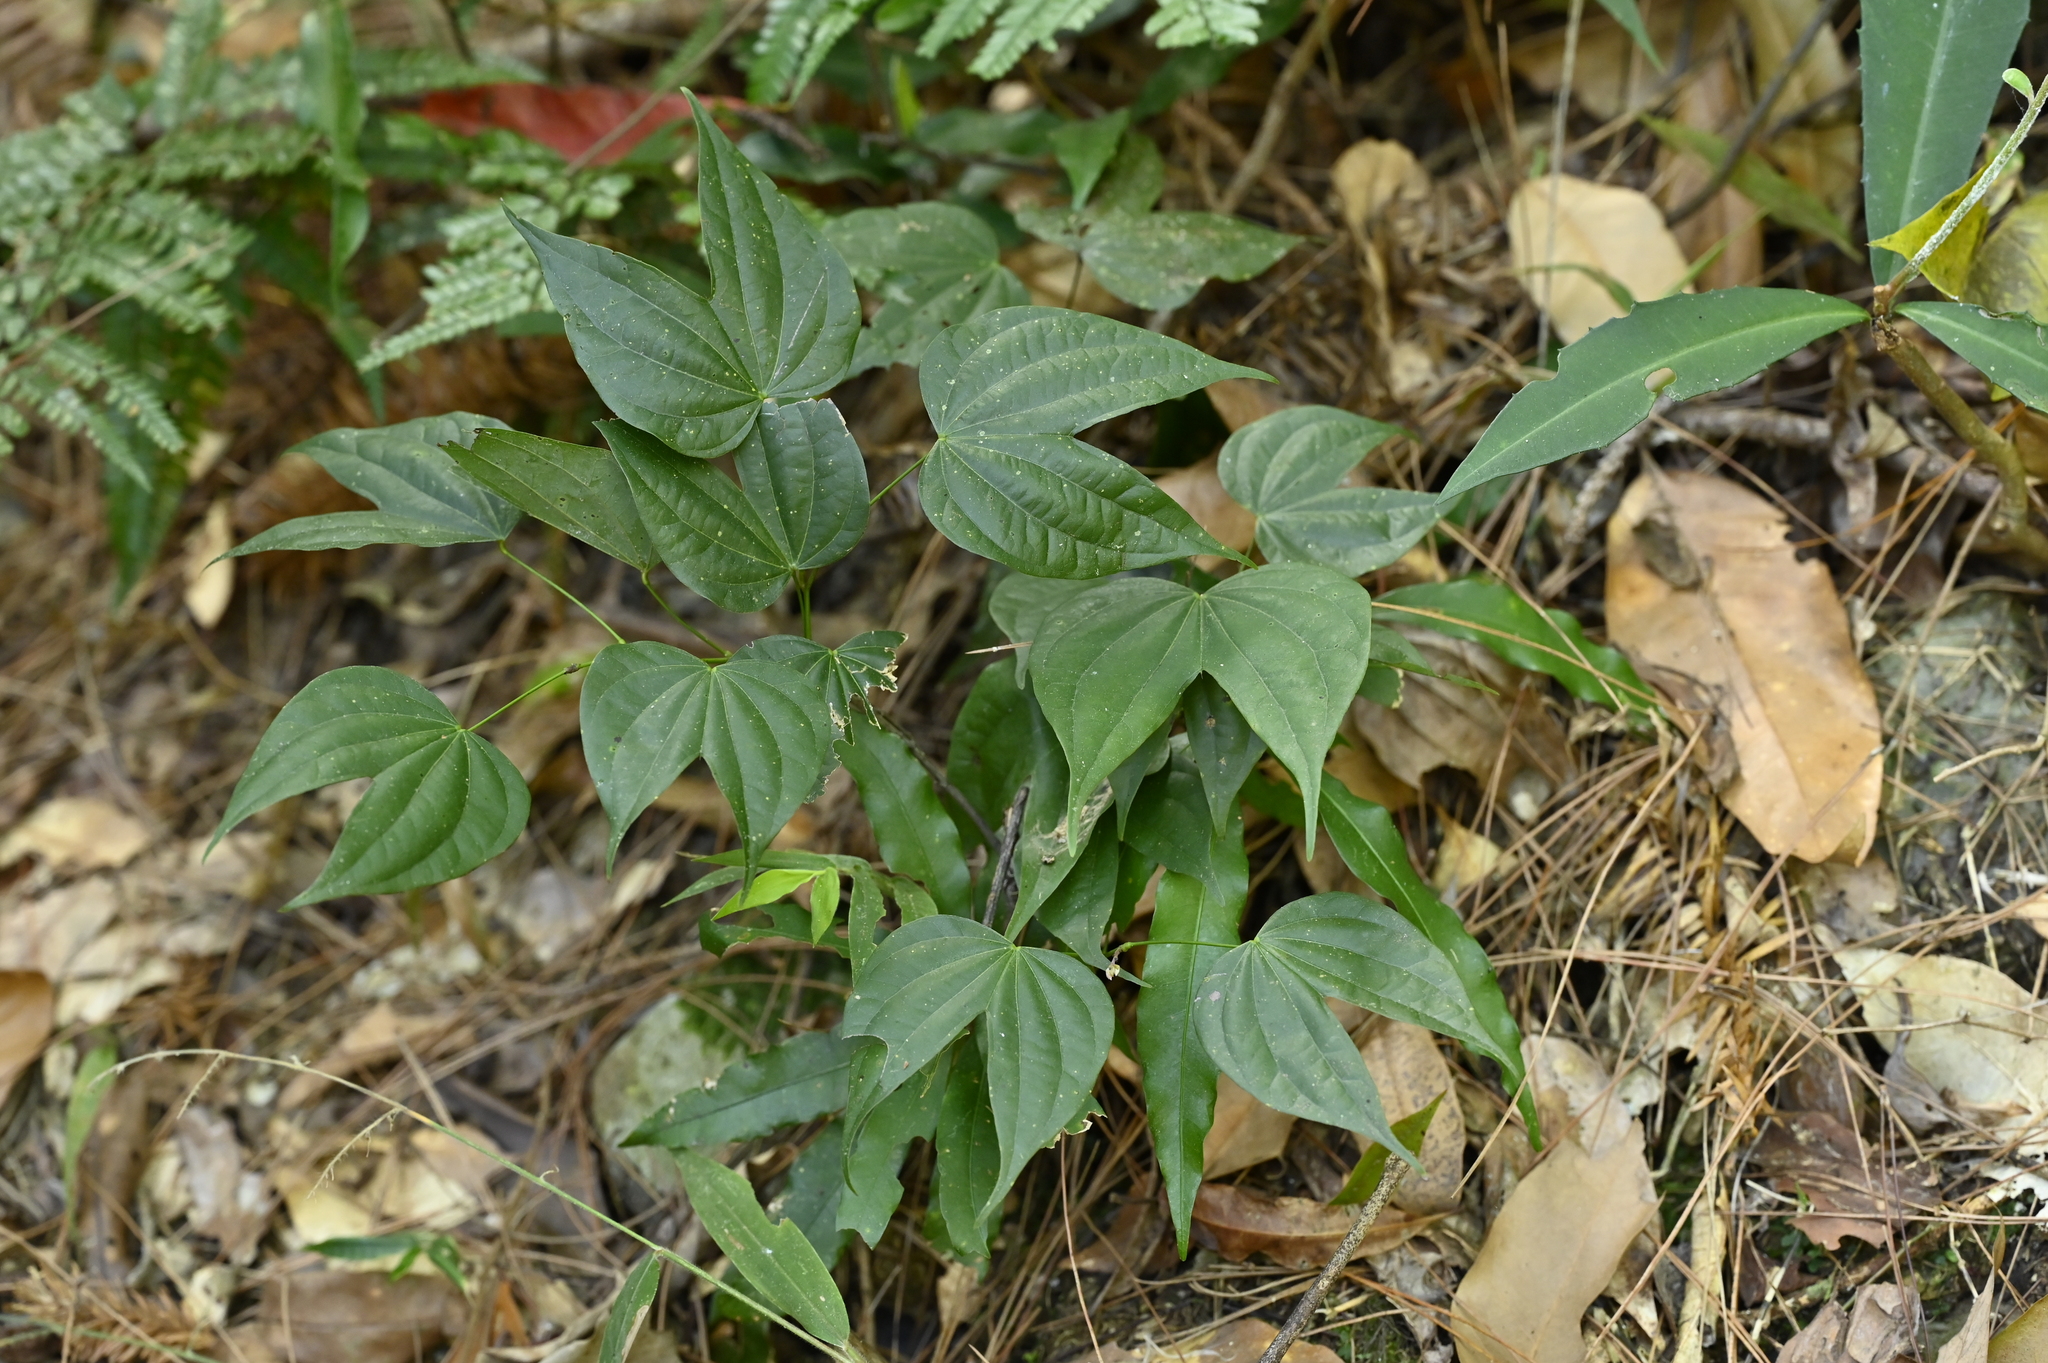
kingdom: Plantae
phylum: Tracheophyta
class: Magnoliopsida
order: Fabales
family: Fabaceae
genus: Phanera
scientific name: Phanera championii
